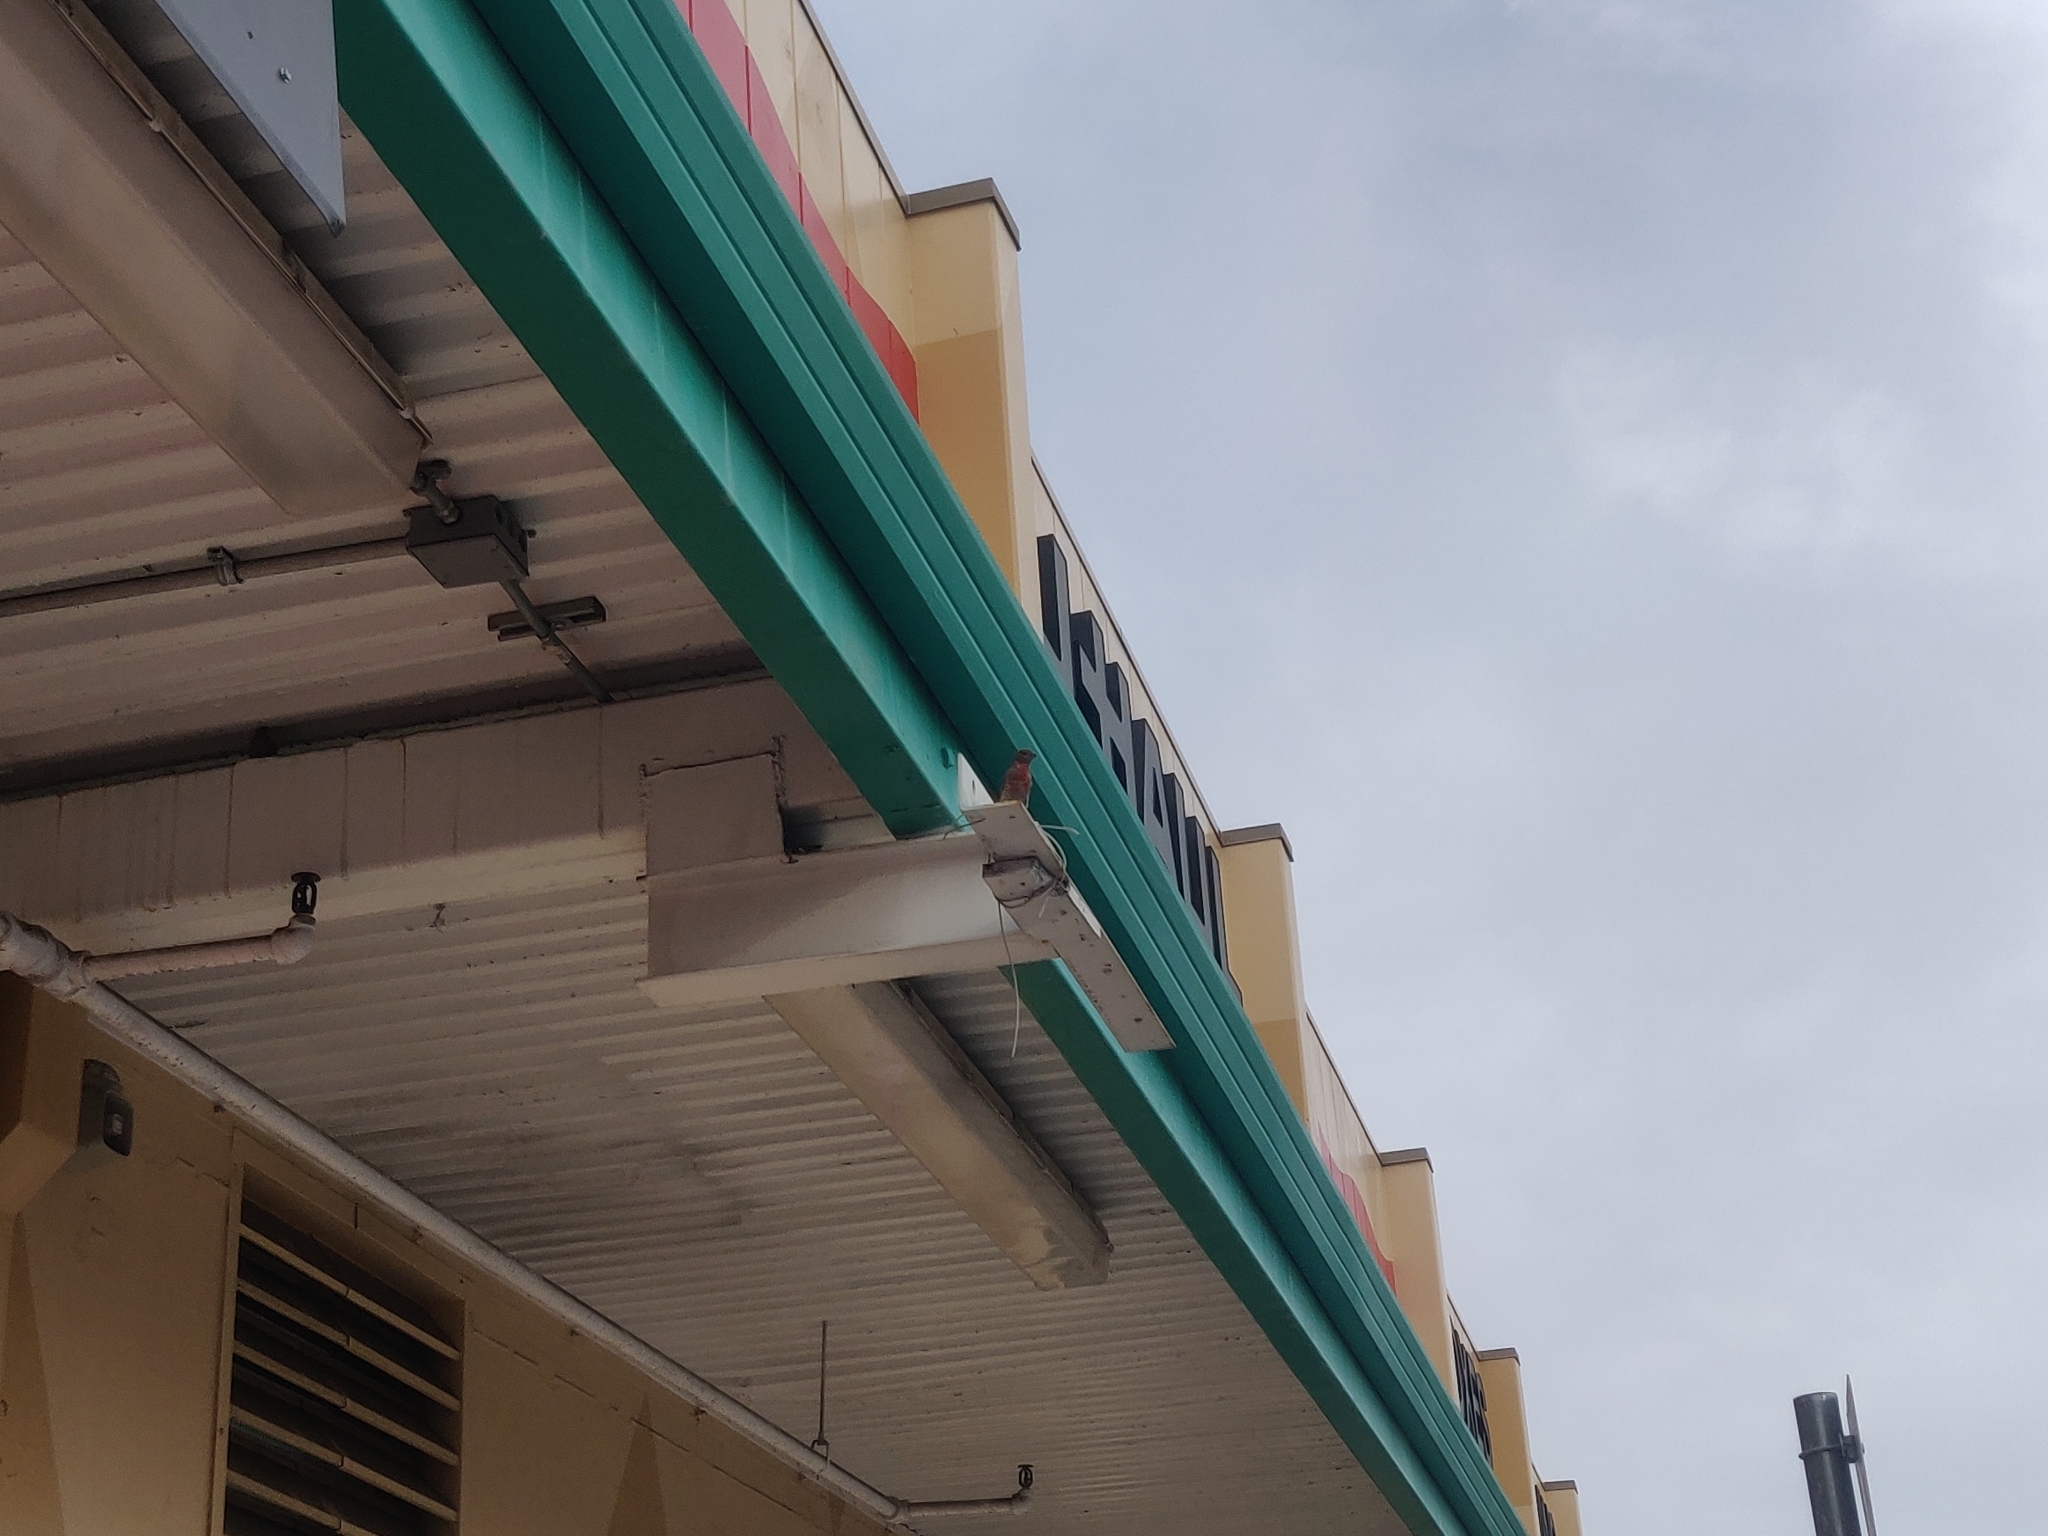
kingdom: Animalia
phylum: Chordata
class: Aves
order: Passeriformes
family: Fringillidae
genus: Haemorhous
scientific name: Haemorhous mexicanus
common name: House finch
